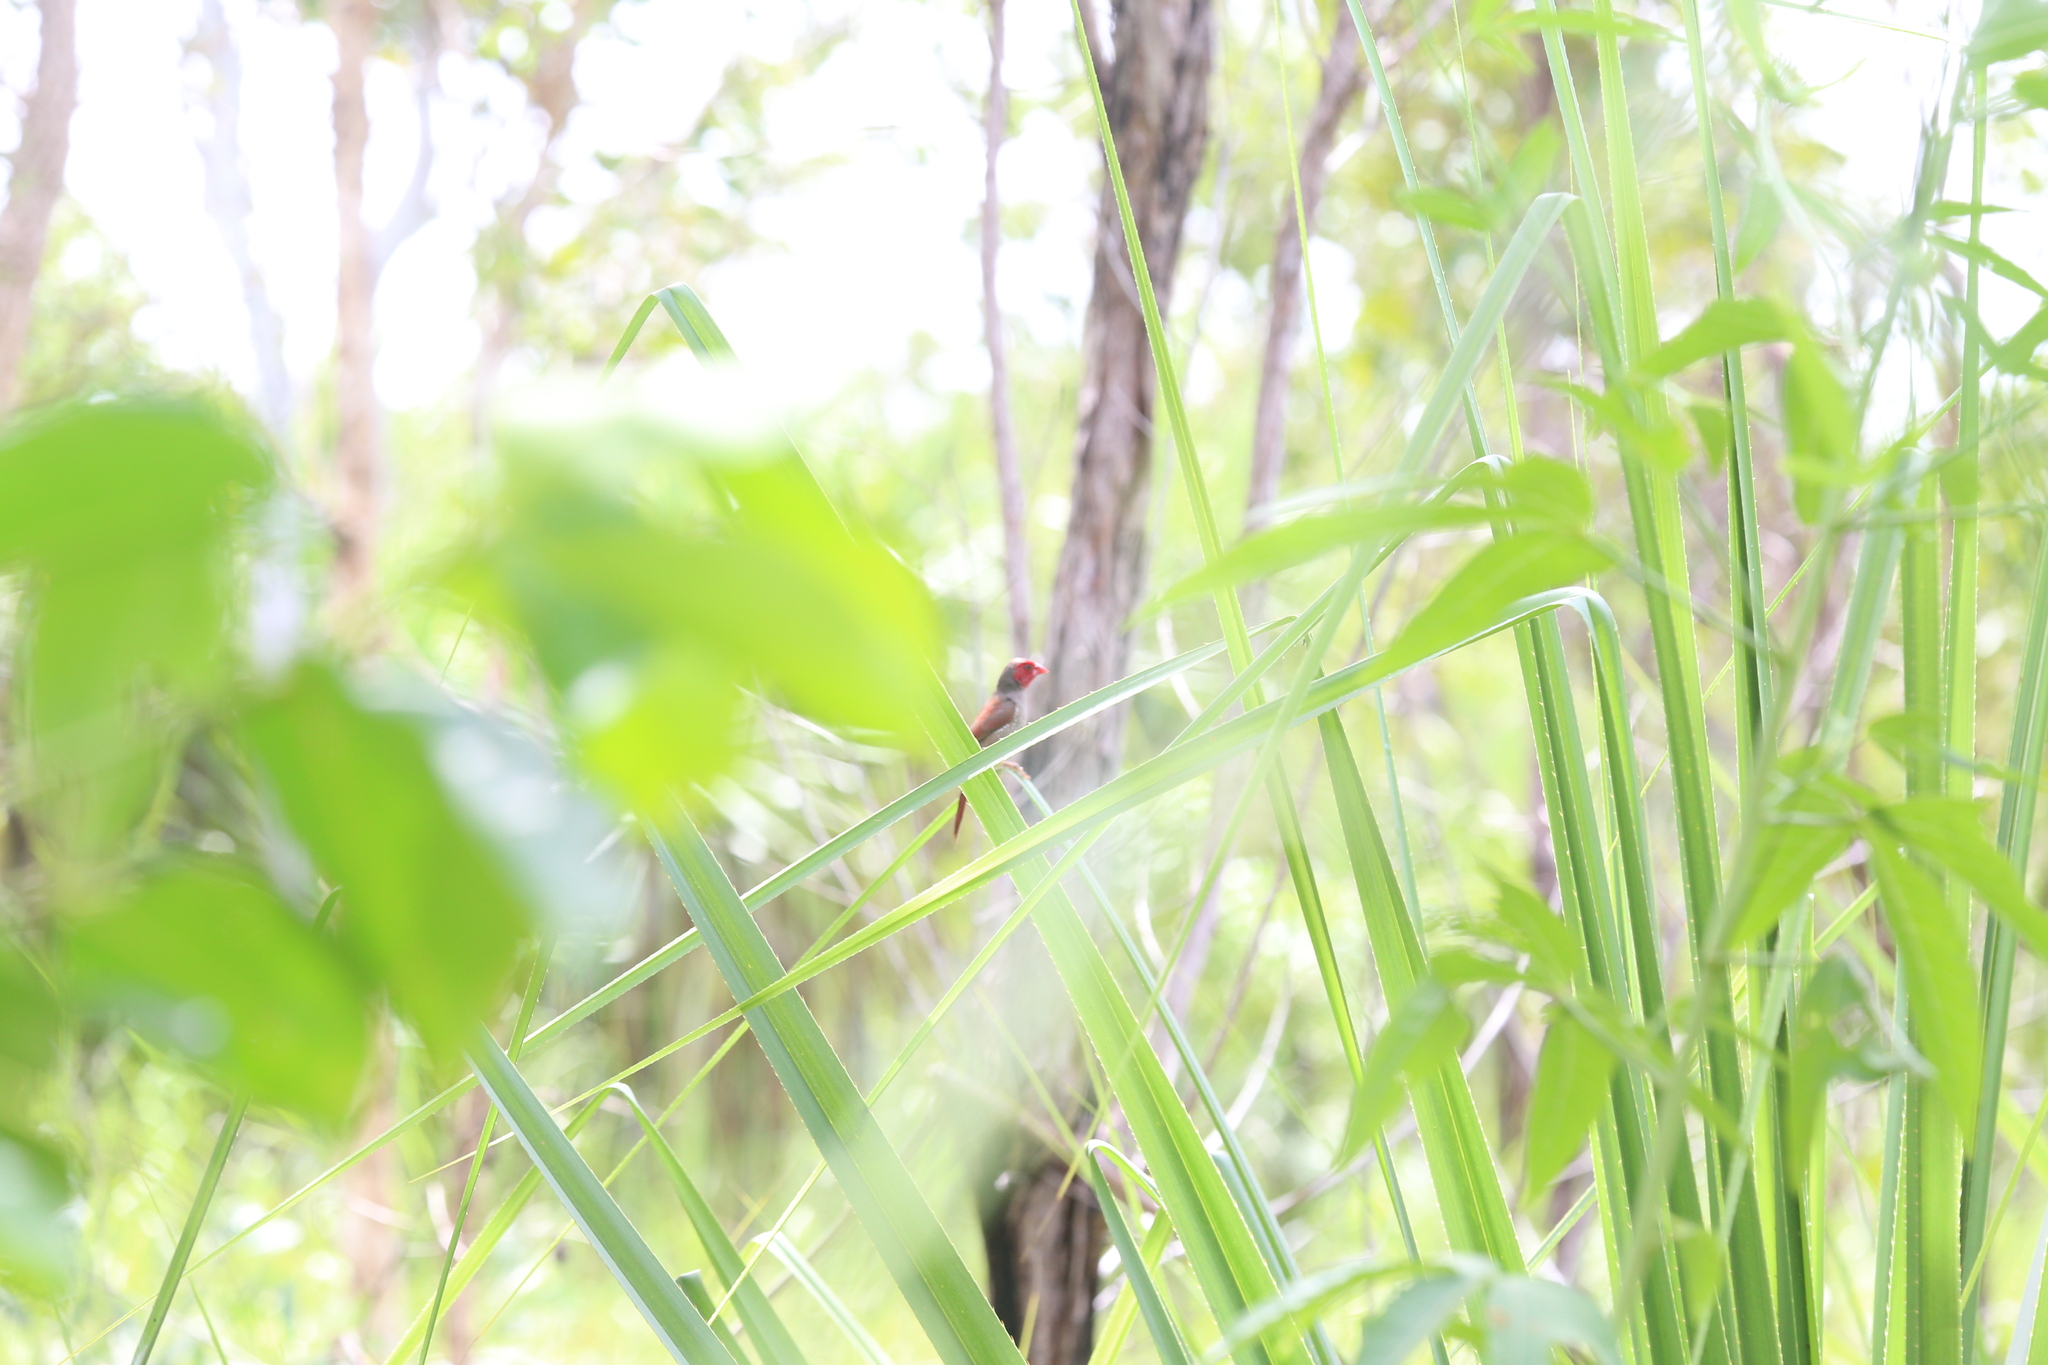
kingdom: Animalia
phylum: Chordata
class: Aves
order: Passeriformes
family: Estrildidae
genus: Neochmia
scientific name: Neochmia phaeton
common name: Crimson finch
